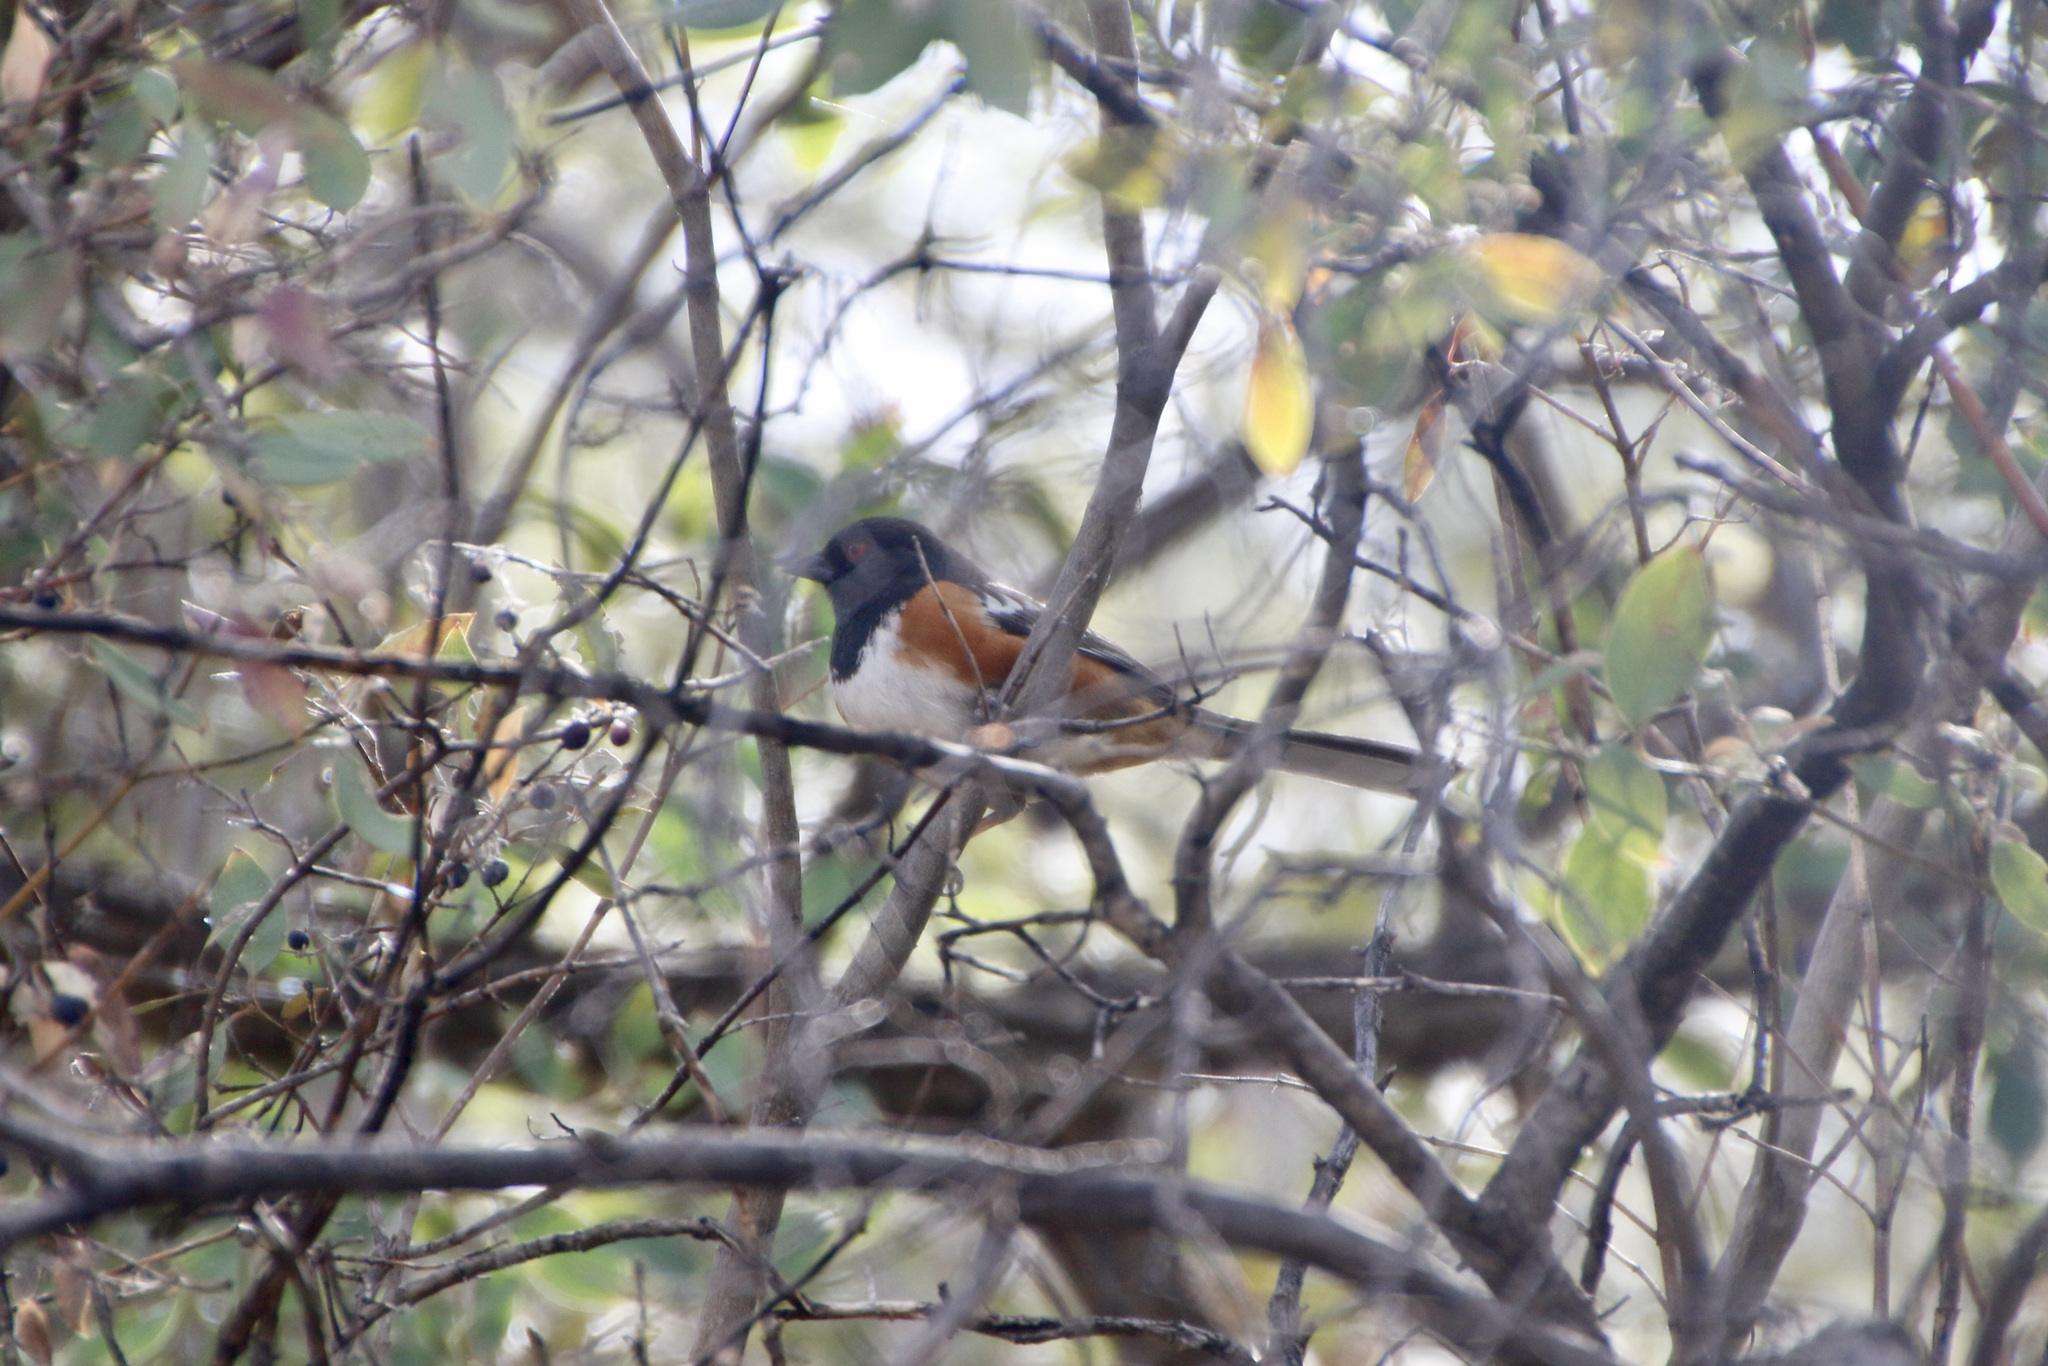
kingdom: Animalia
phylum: Chordata
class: Aves
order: Passeriformes
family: Passerellidae
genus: Pipilo
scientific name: Pipilo maculatus
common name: Spotted towhee
